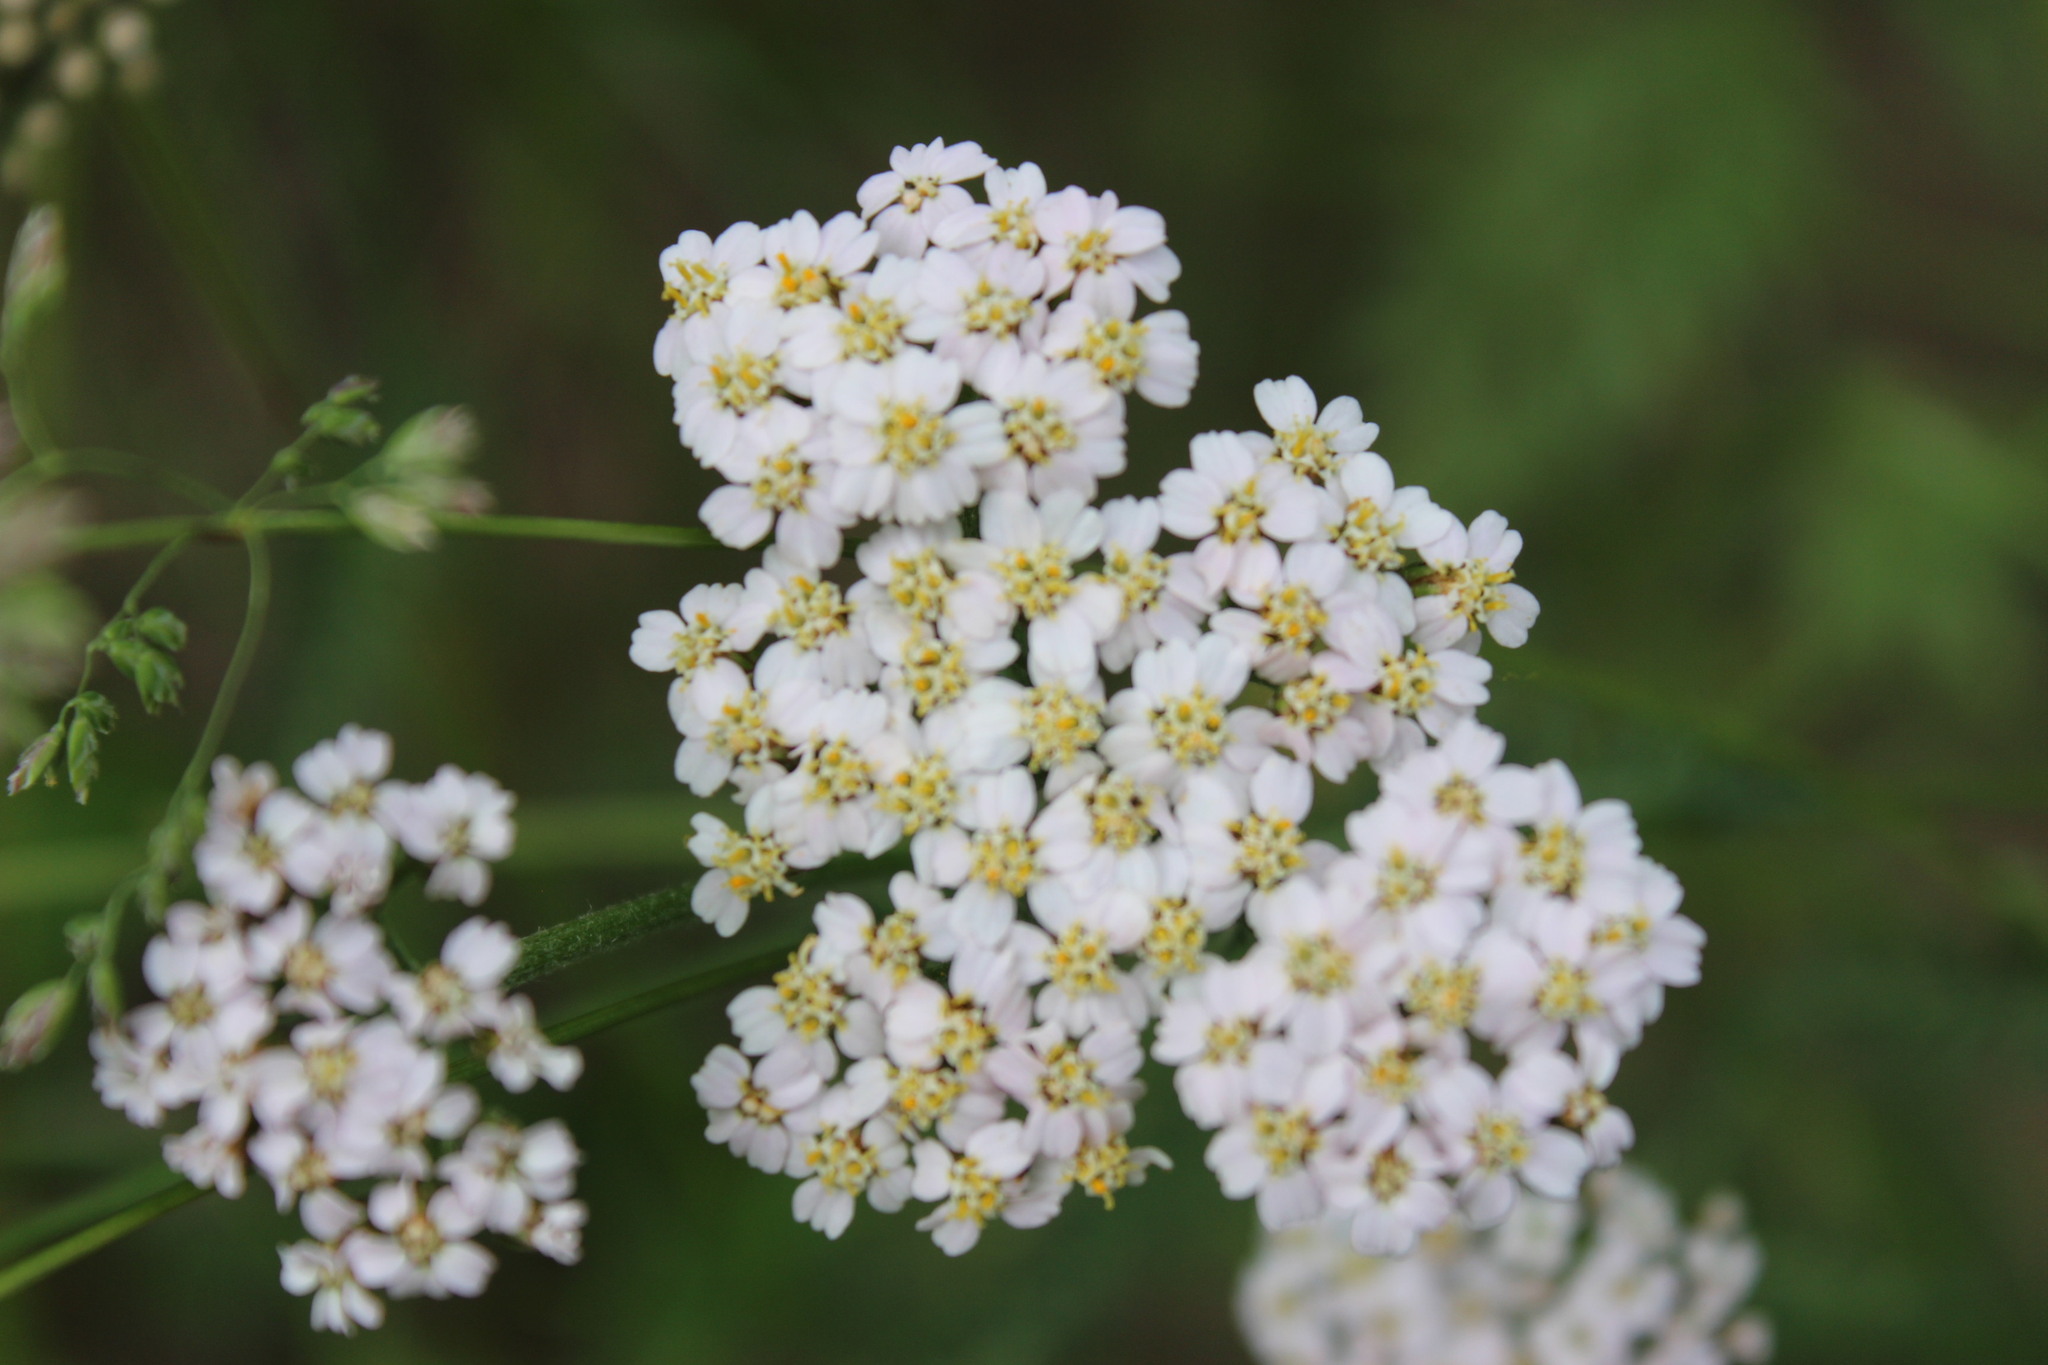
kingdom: Plantae
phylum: Tracheophyta
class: Magnoliopsida
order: Asterales
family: Asteraceae
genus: Achillea
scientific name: Achillea millefolium
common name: Yarrow
